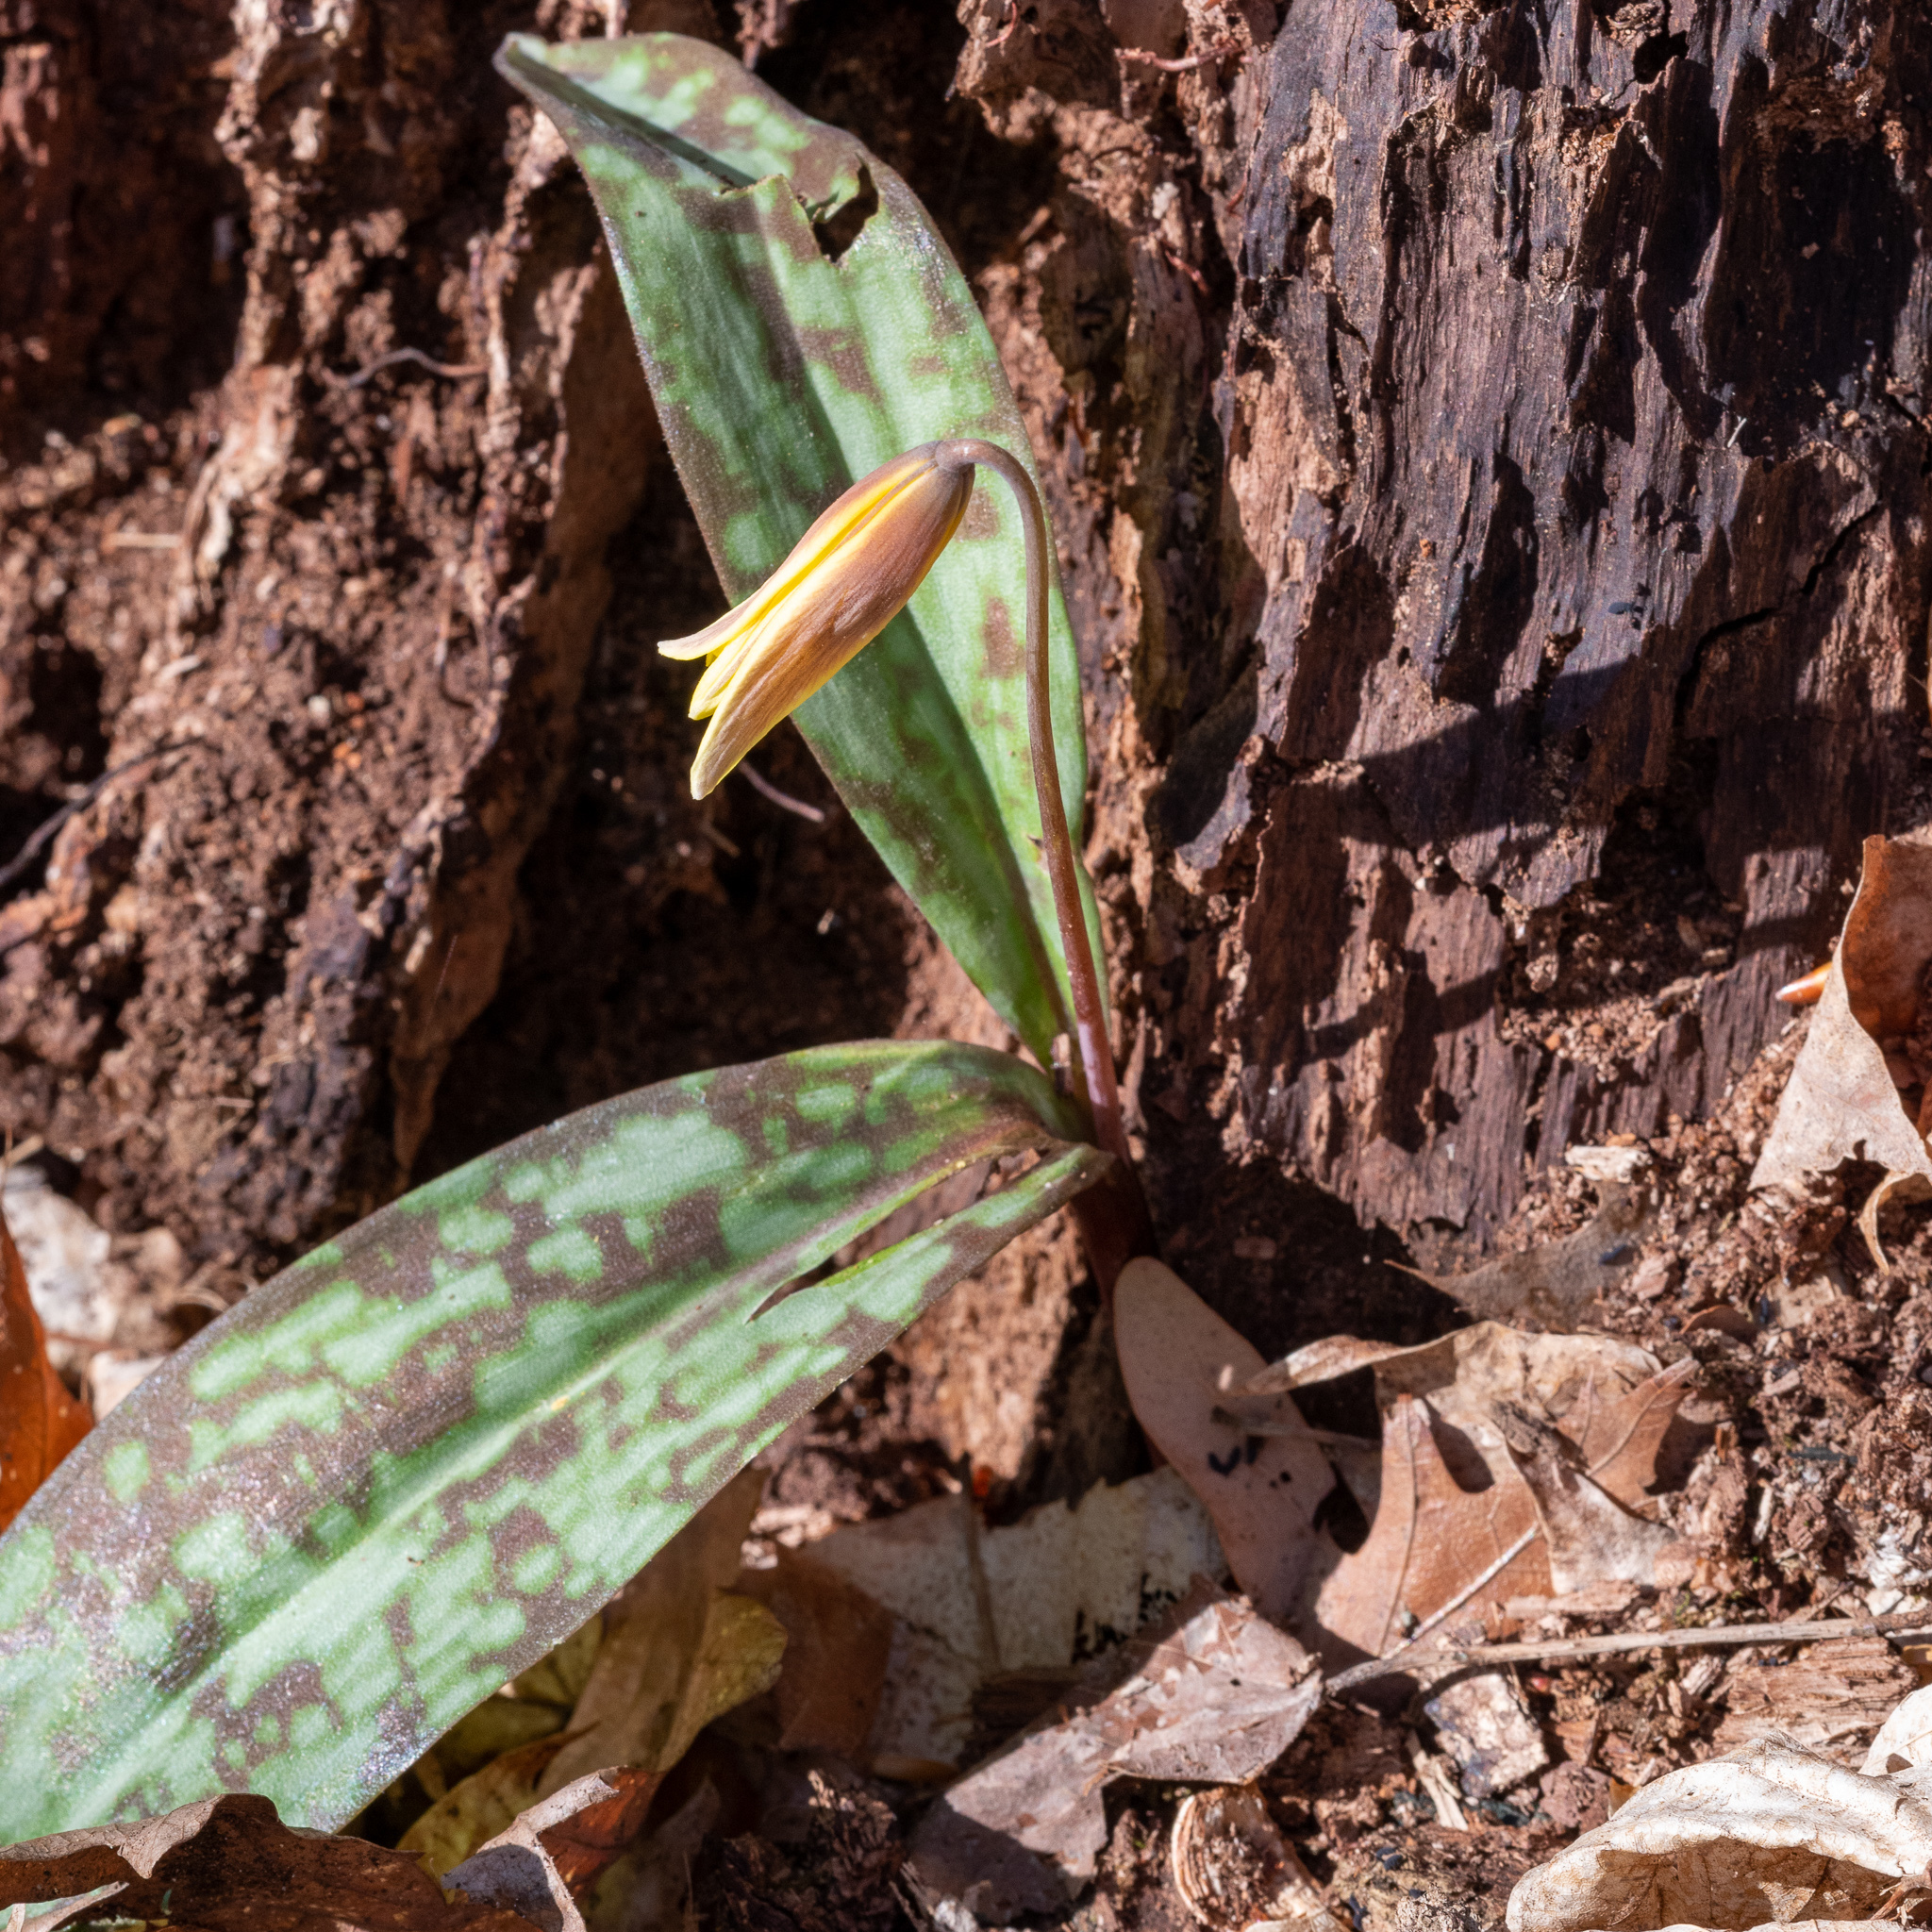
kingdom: Plantae
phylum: Tracheophyta
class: Liliopsida
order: Liliales
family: Liliaceae
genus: Erythronium
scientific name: Erythronium americanum
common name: Yellow adder's-tongue
